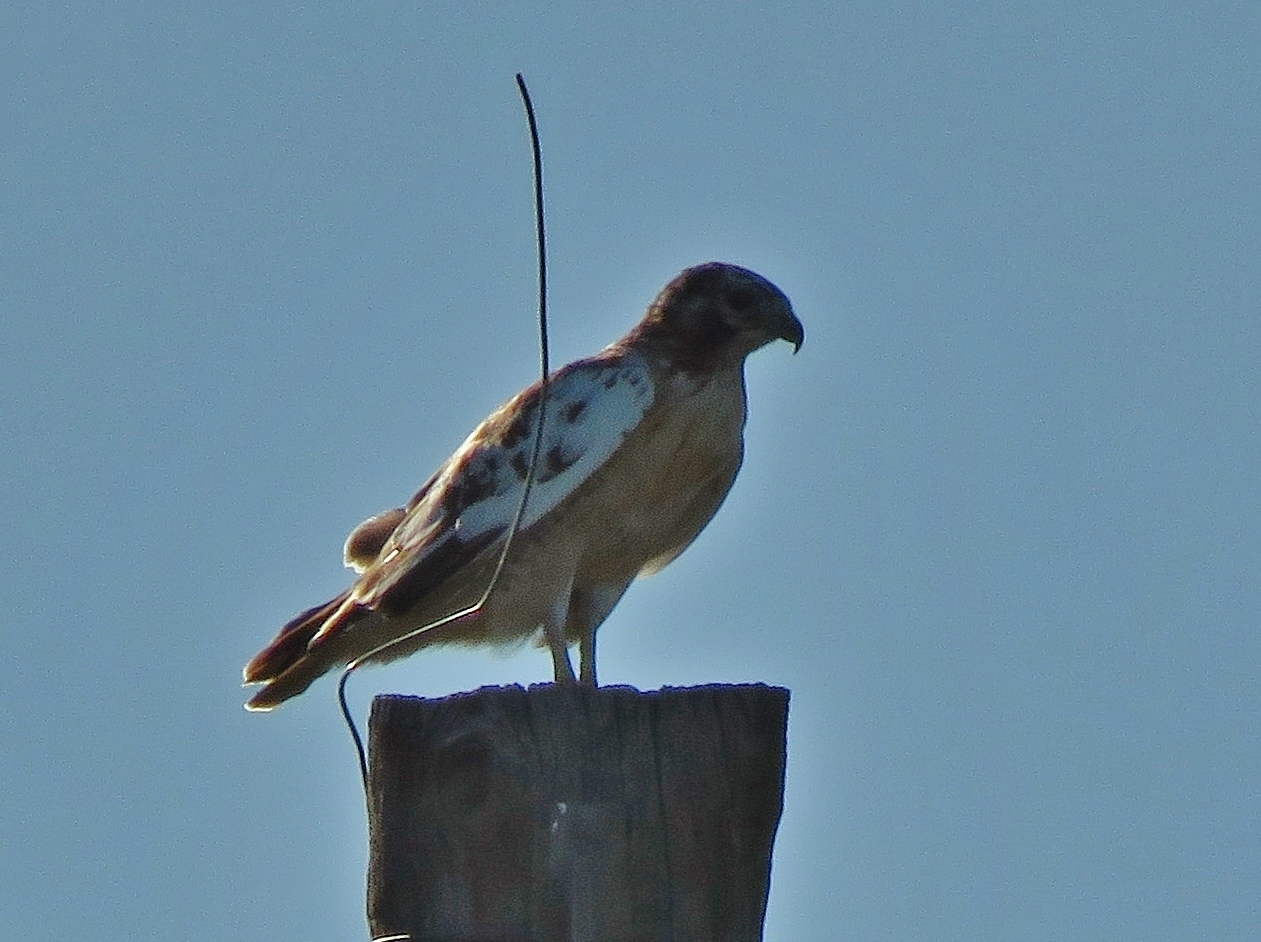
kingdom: Animalia
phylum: Chordata
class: Aves
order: Accipitriformes
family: Accipitridae
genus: Buteo
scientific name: Buteo jamaicensis
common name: Red-tailed hawk
